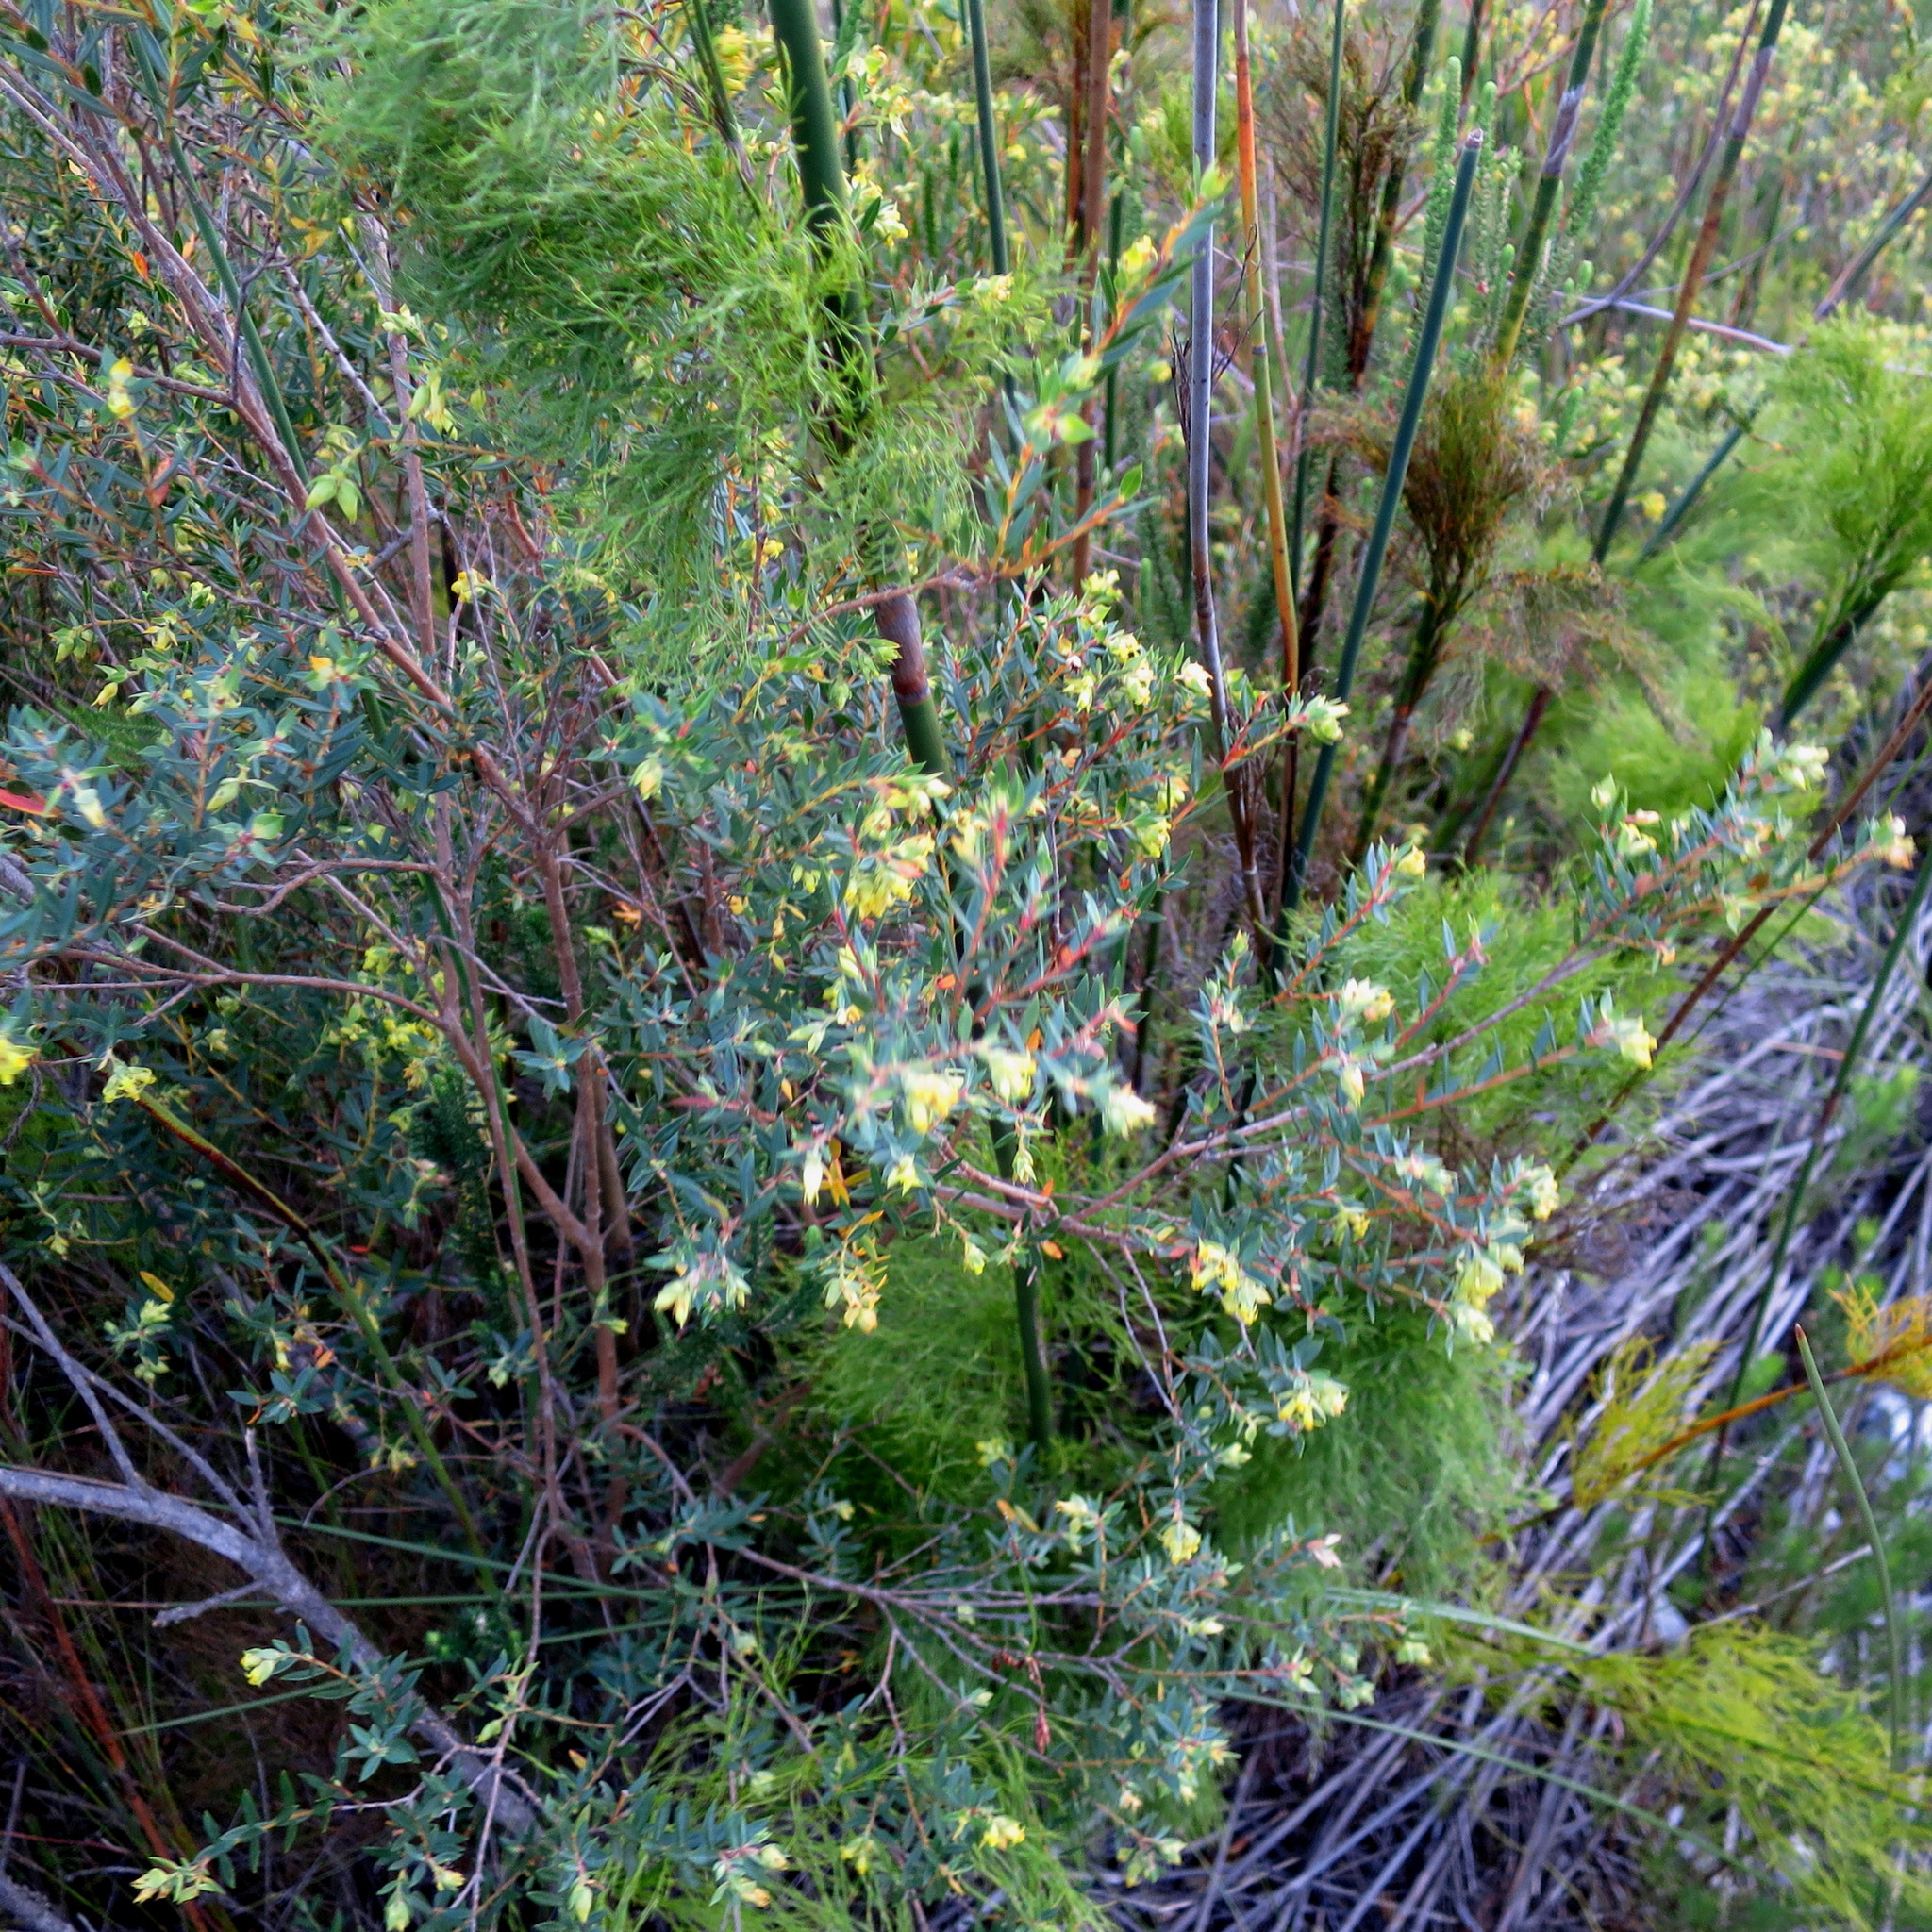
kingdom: Plantae
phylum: Tracheophyta
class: Magnoliopsida
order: Myrtales
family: Penaeaceae
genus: Penaea
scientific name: Penaea acutifolia
